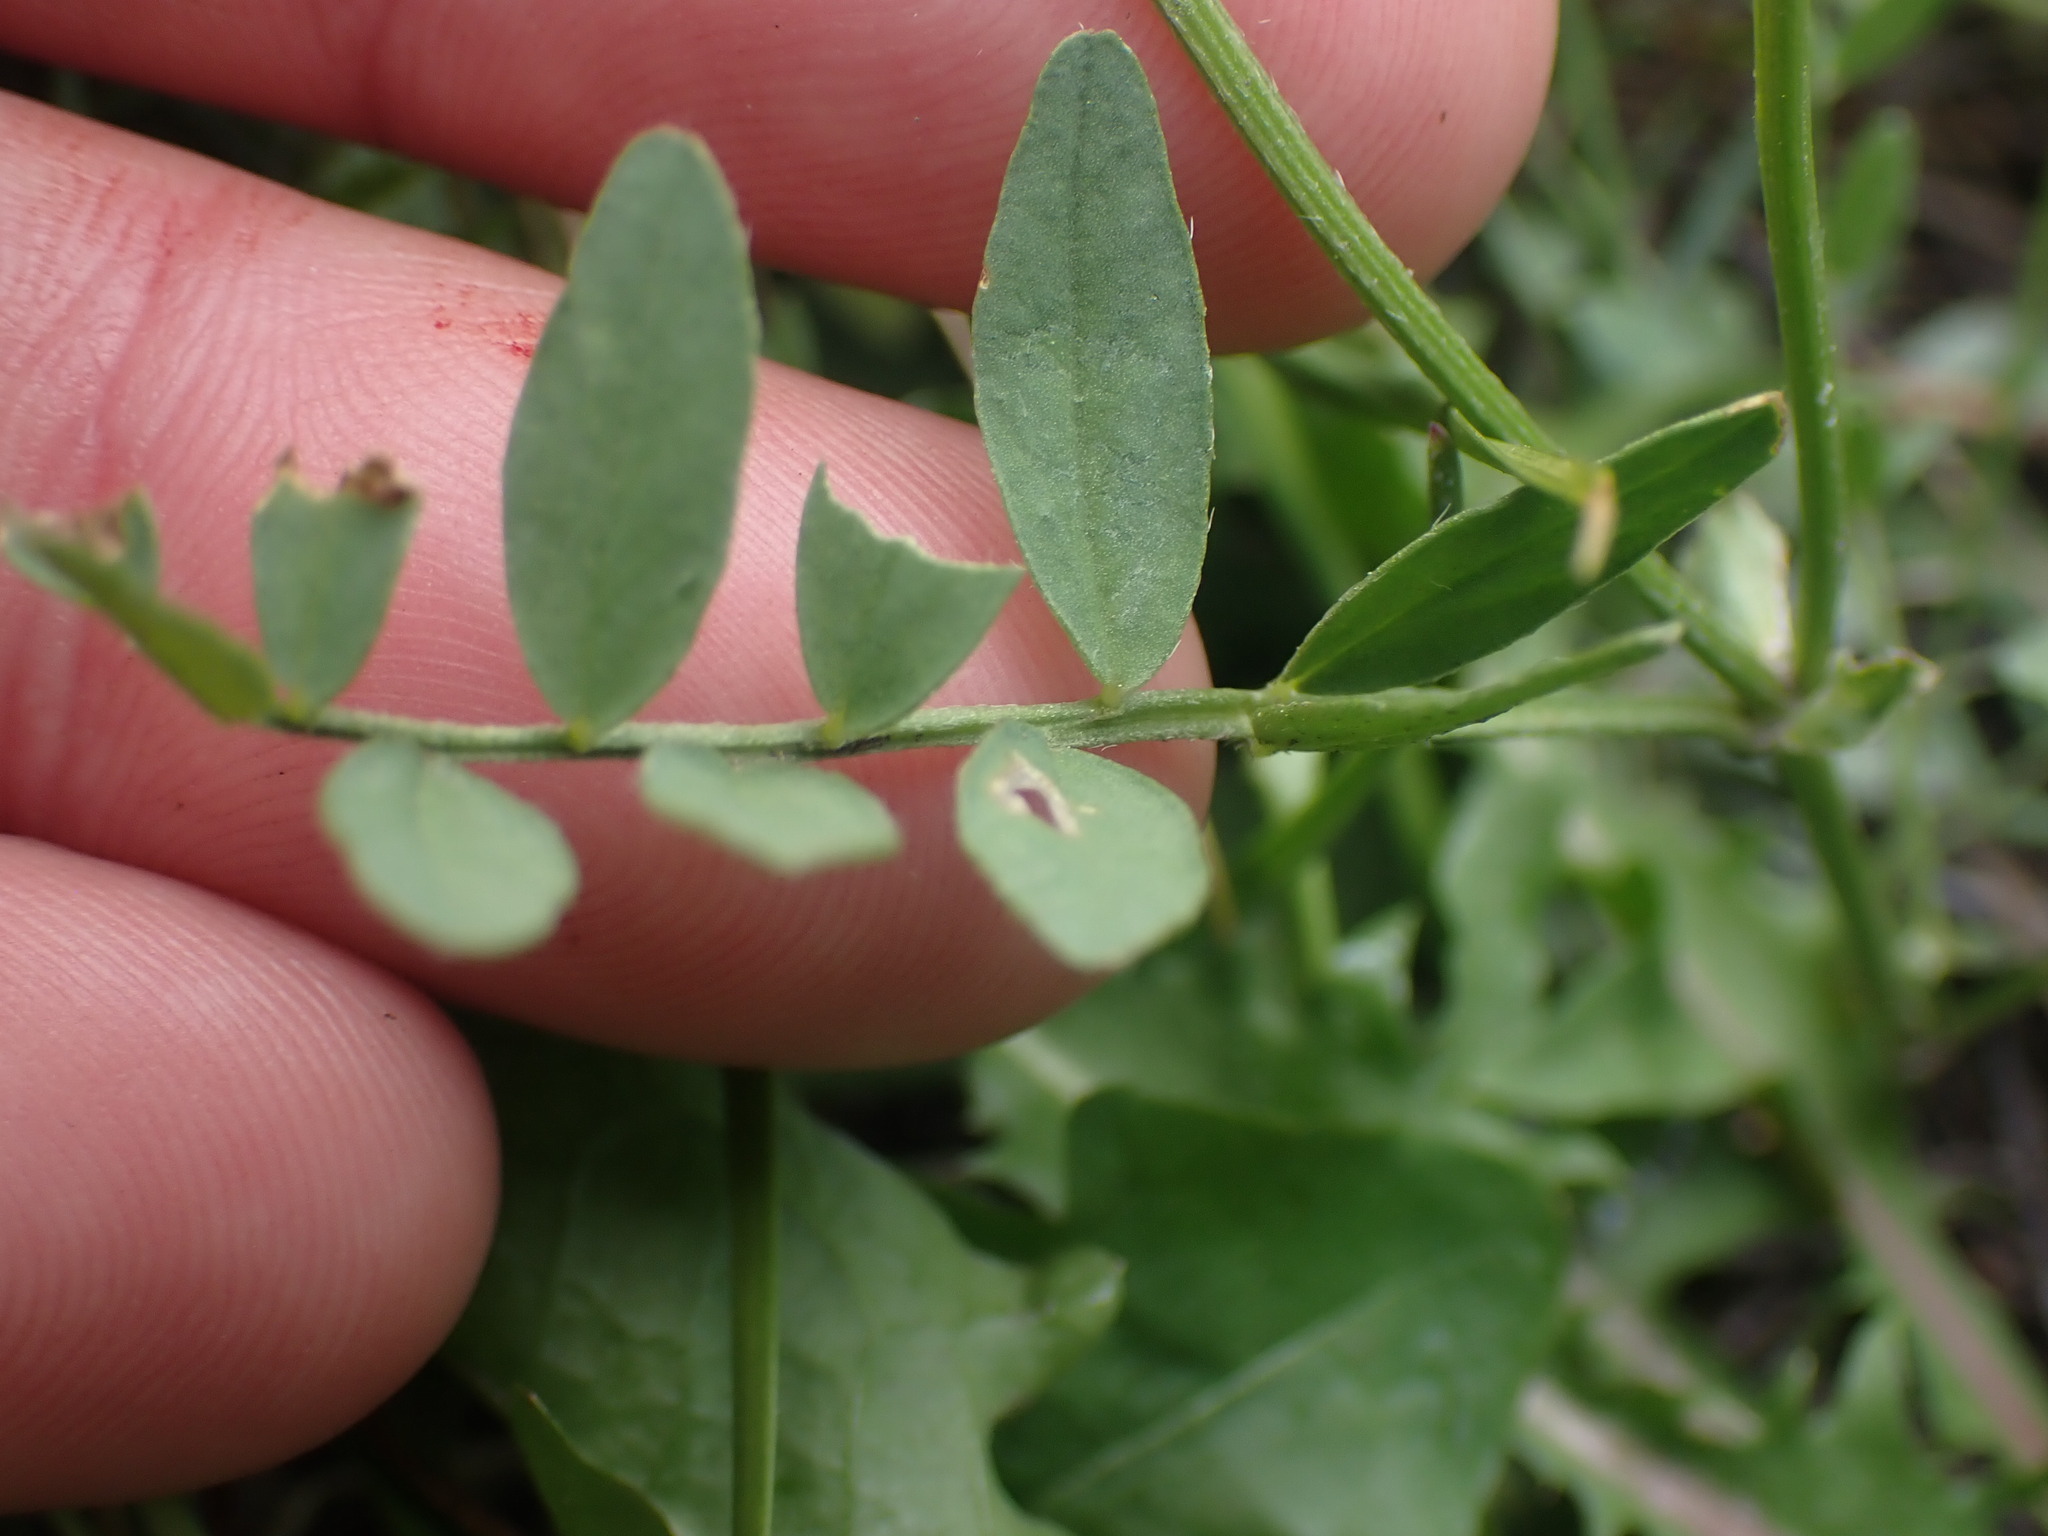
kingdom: Plantae
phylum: Tracheophyta
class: Magnoliopsida
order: Fabales
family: Fabaceae
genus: Astragalus
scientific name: Astragalus agrestis
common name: Field milk-vetch
